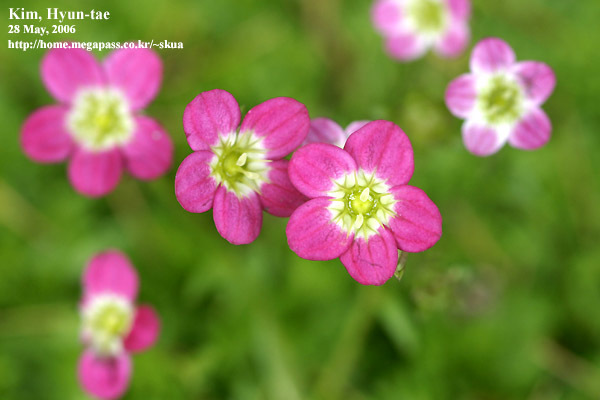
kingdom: Plantae
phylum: Tracheophyta
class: Magnoliopsida
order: Saxifragales
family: Saxifragaceae
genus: Saxifraga
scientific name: Saxifraga arendsii
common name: Garden mossy-saxifrage
